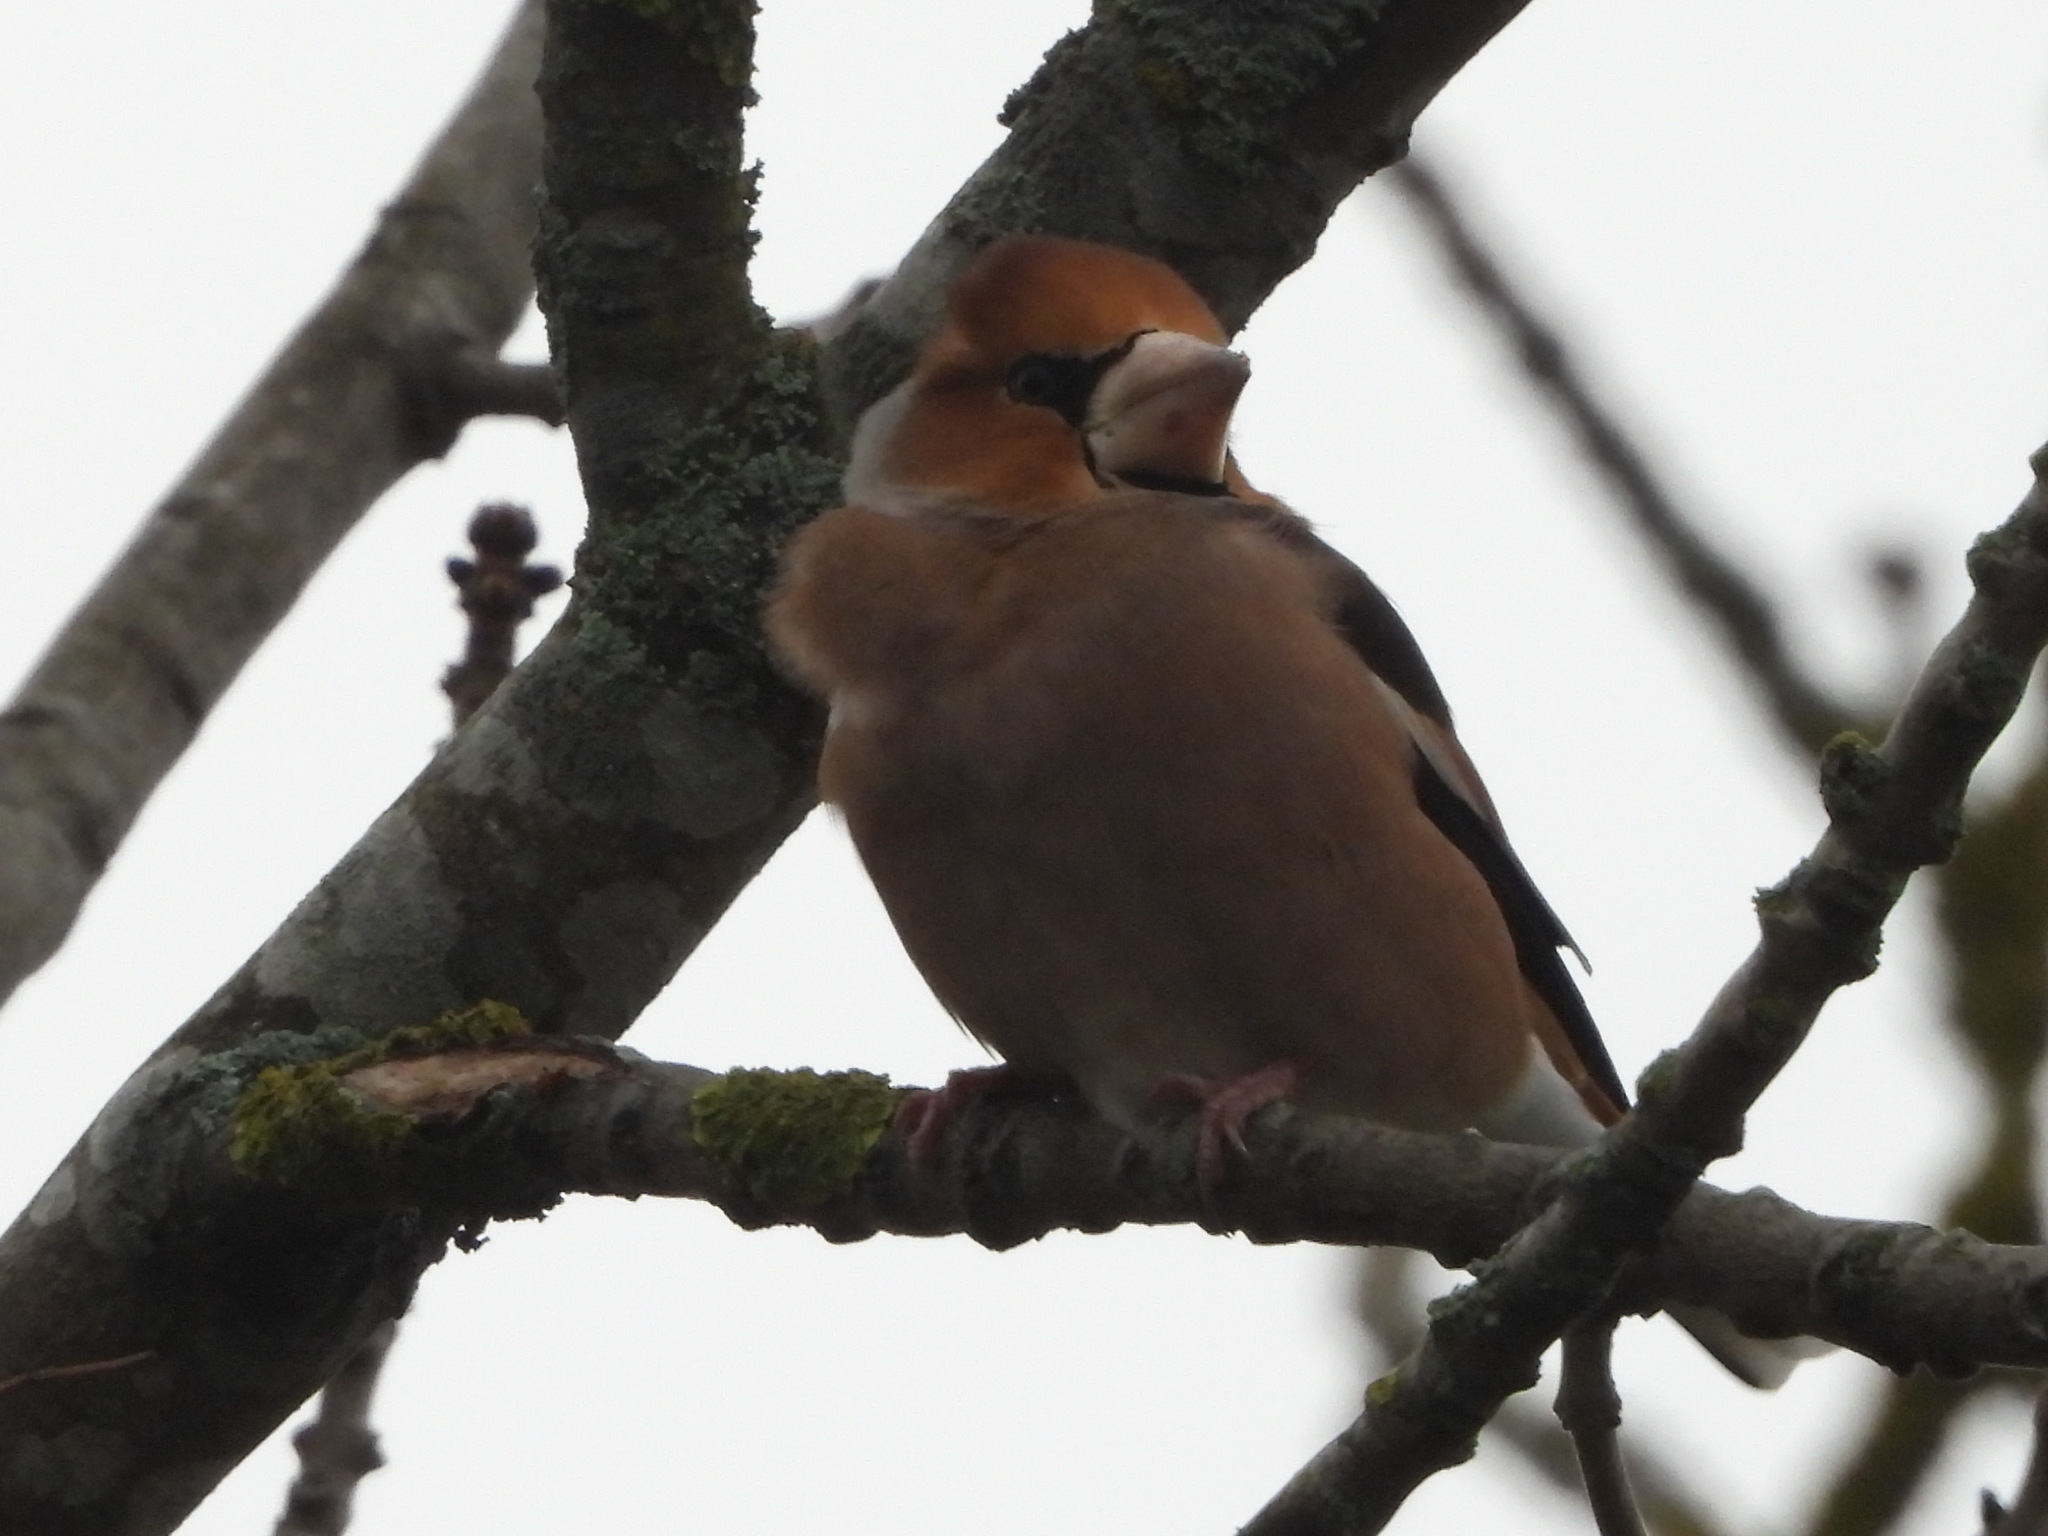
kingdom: Animalia
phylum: Chordata
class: Aves
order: Passeriformes
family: Fringillidae
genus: Coccothraustes
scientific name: Coccothraustes coccothraustes
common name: Hawfinch
